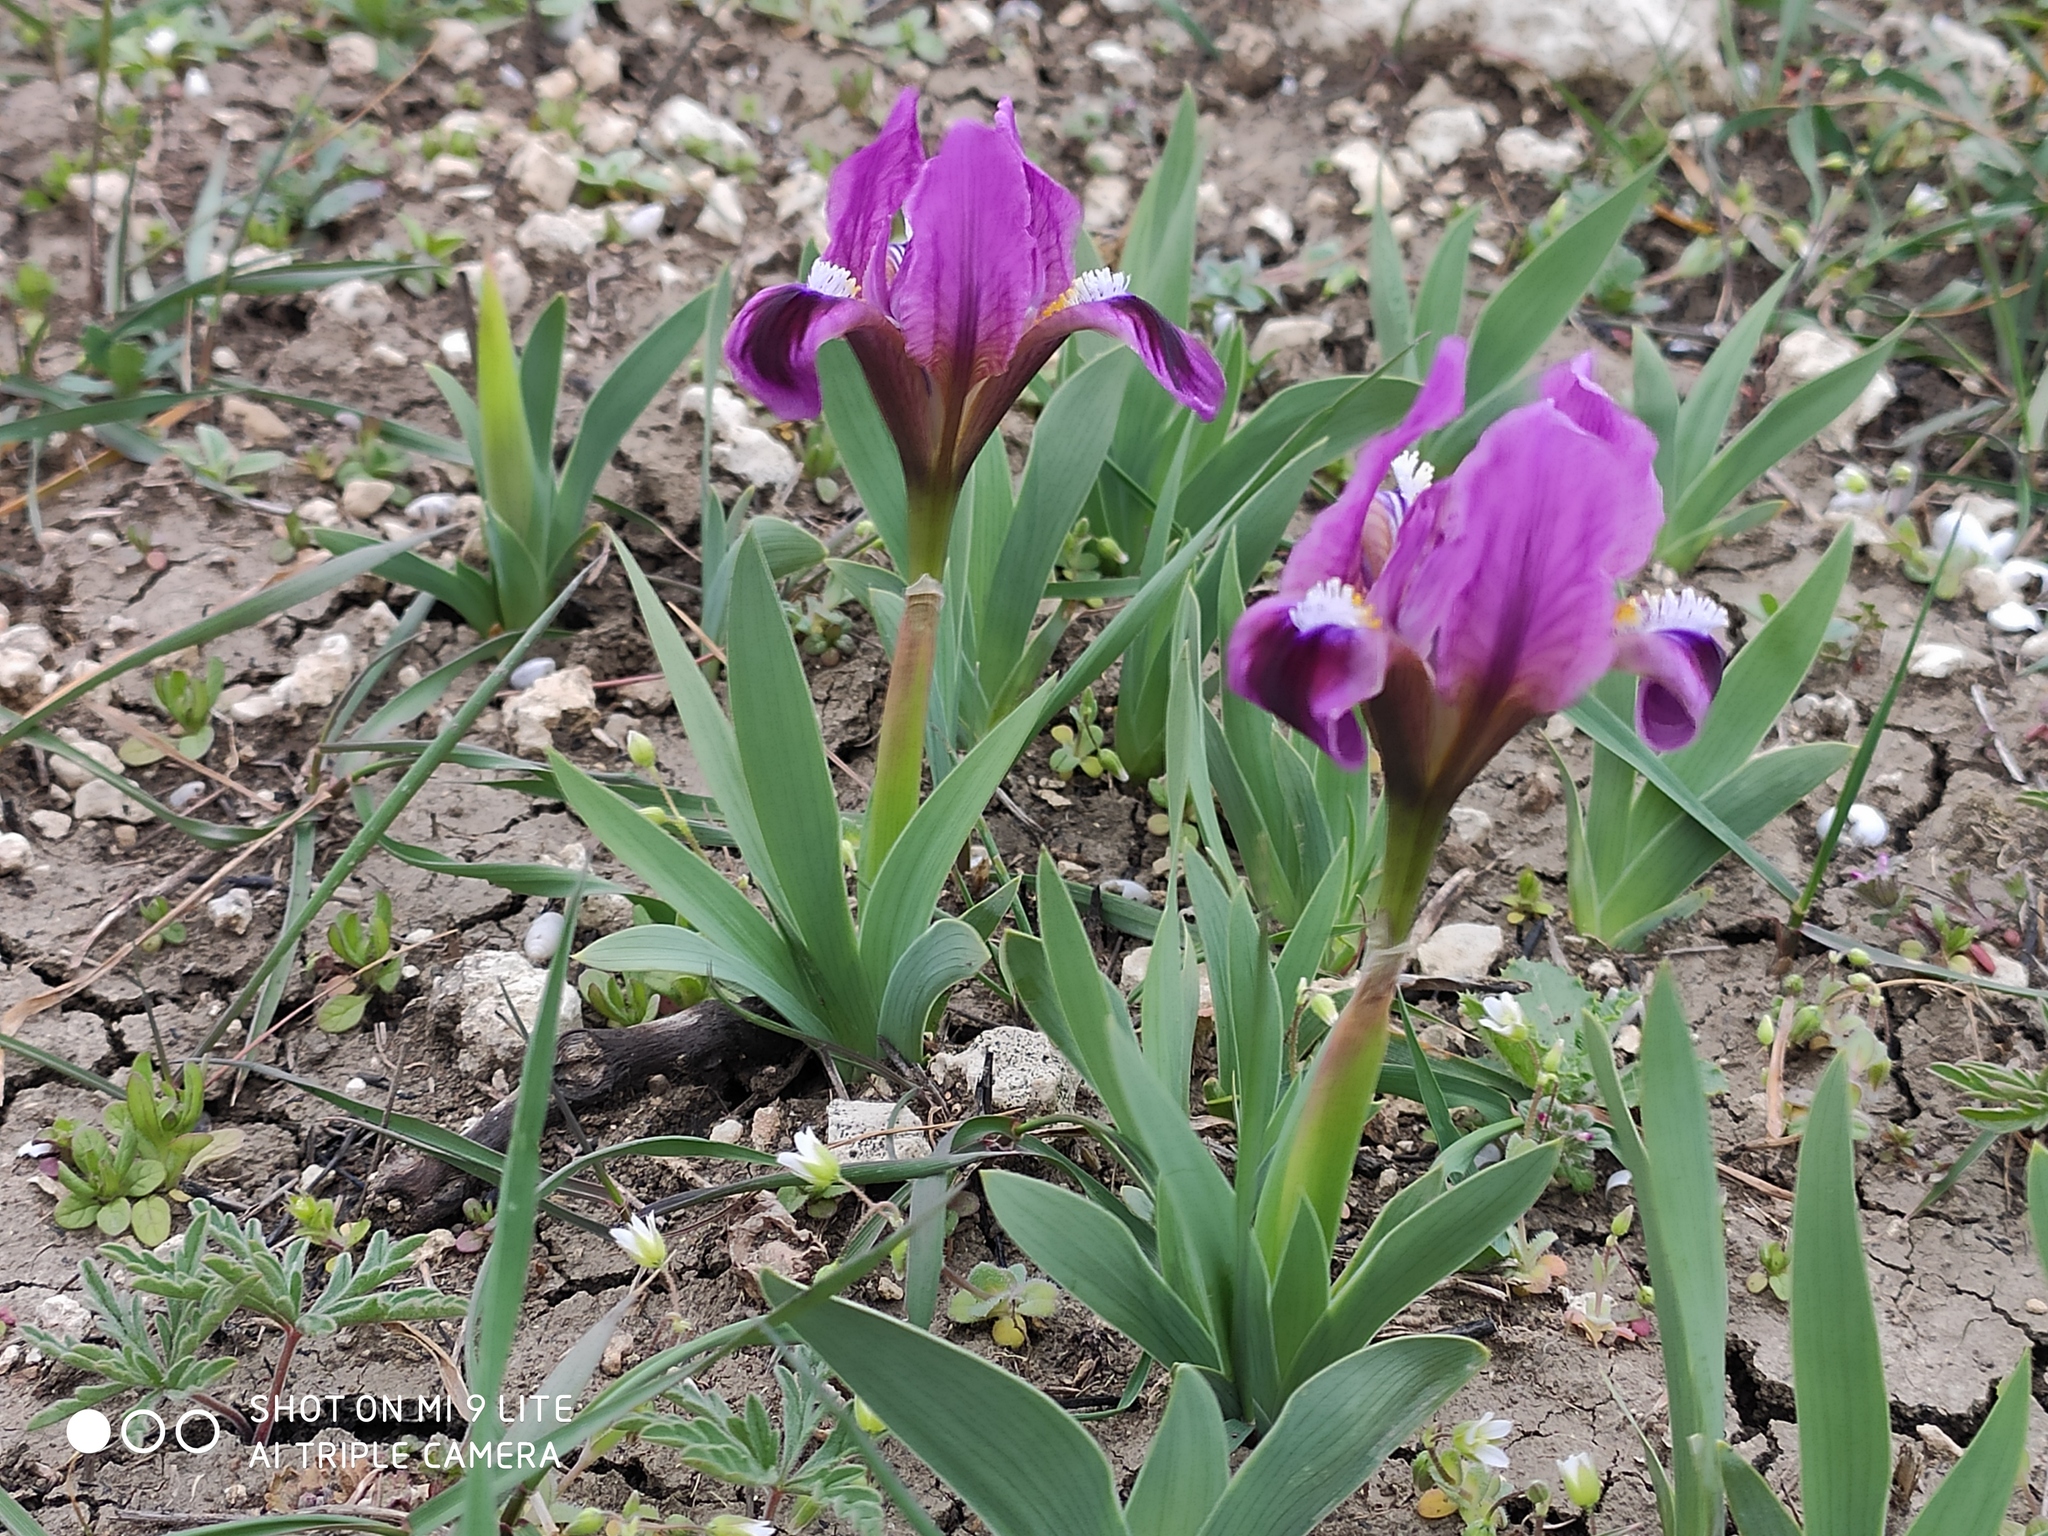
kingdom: Plantae
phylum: Tracheophyta
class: Liliopsida
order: Asparagales
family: Iridaceae
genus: Iris
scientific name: Iris pumila
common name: Dwarf iris
